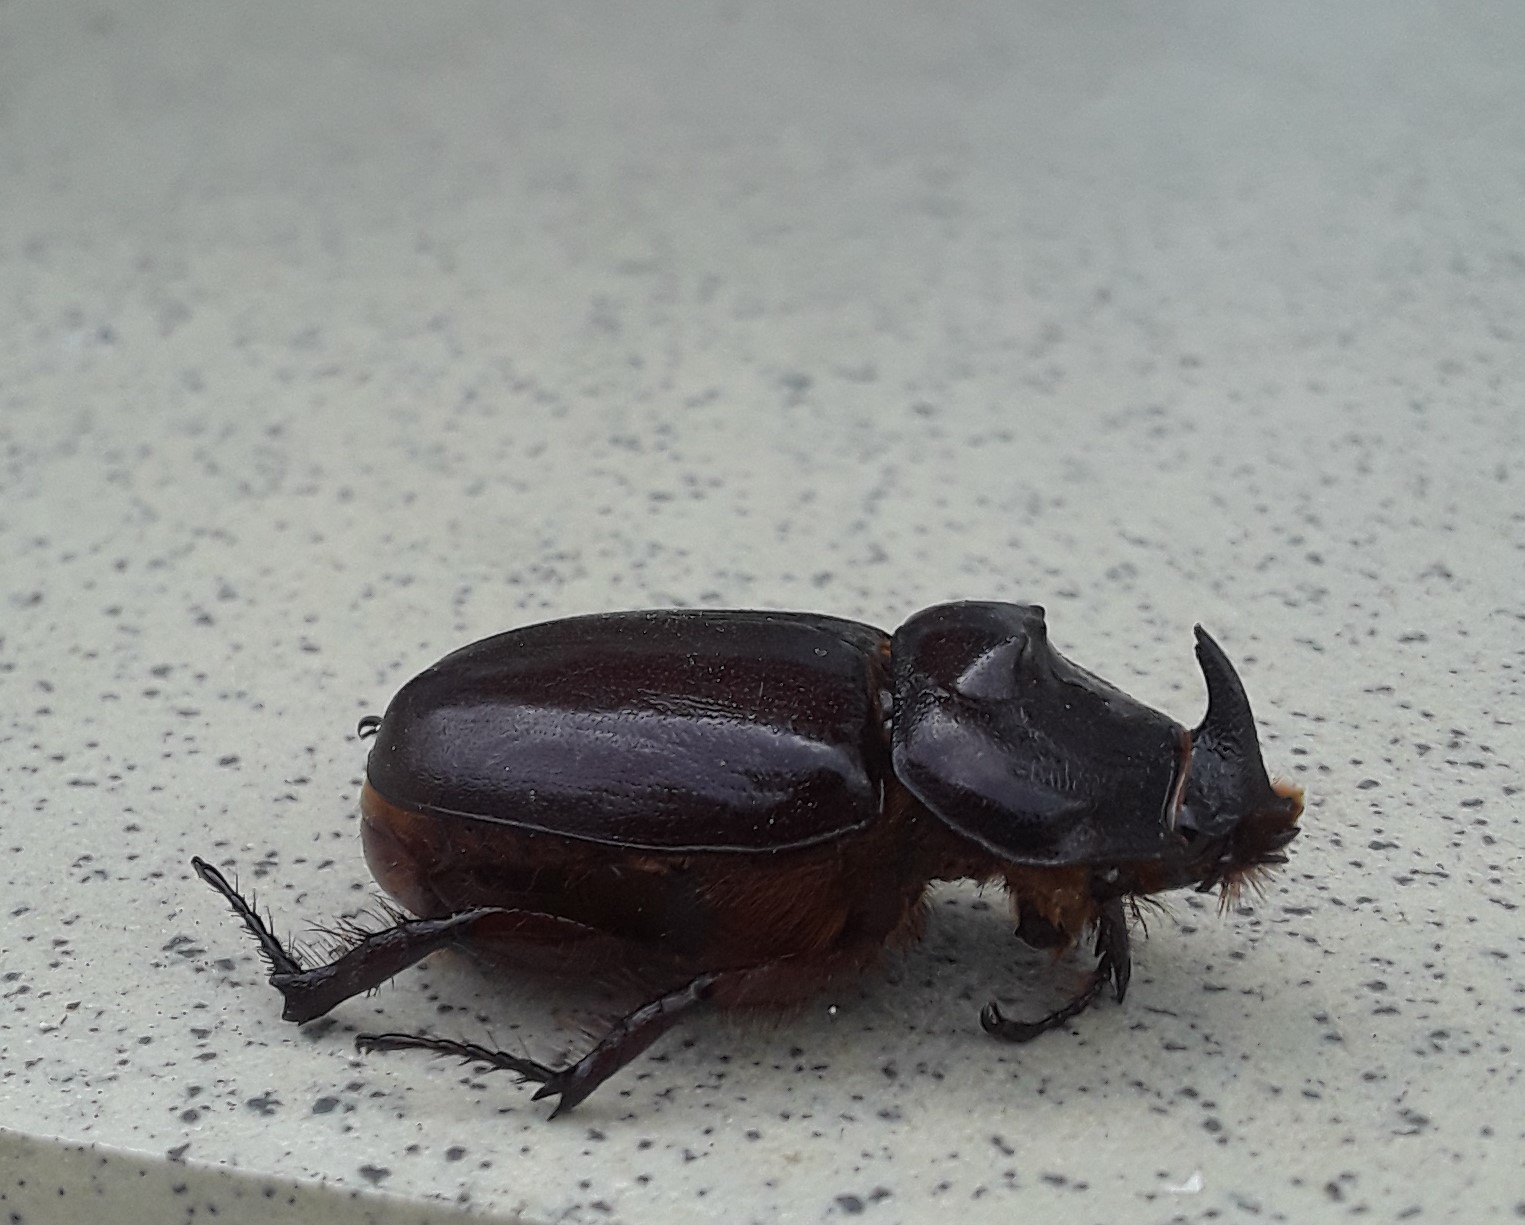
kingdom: Animalia
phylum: Arthropoda
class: Insecta
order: Coleoptera
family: Scarabaeidae
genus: Oryctes
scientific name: Oryctes nasicornis
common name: European rhinoceros beetle
